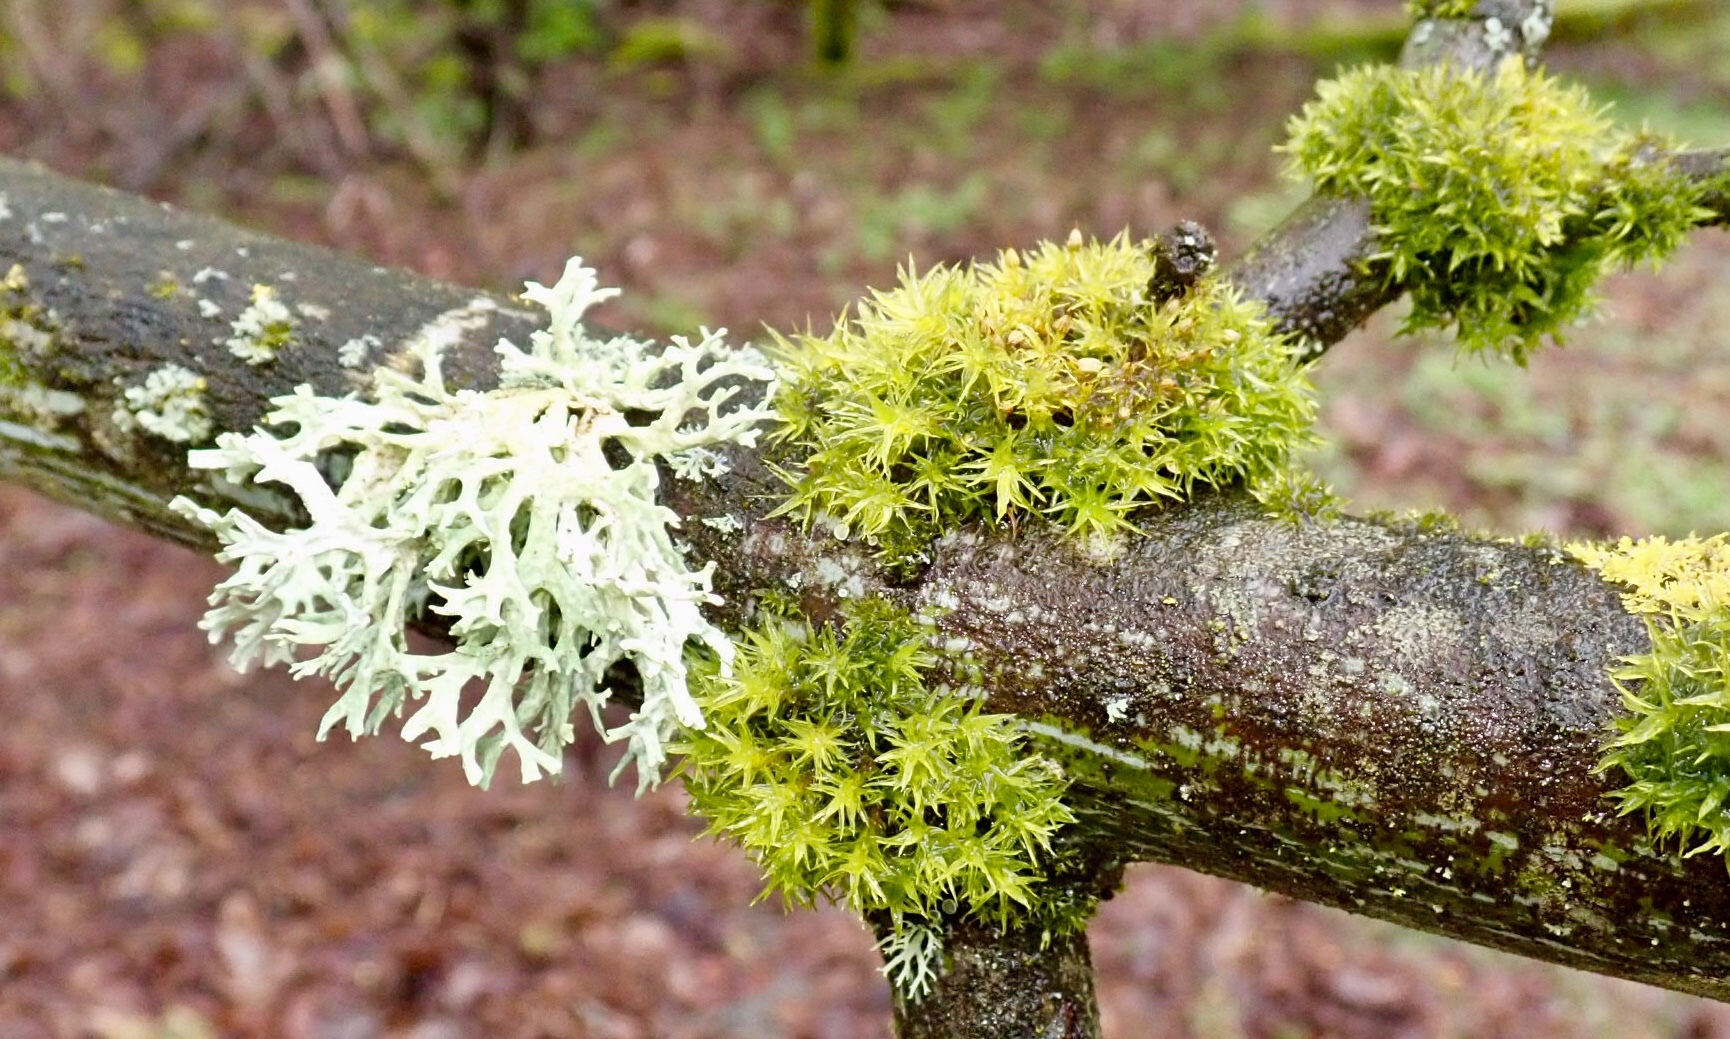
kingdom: Fungi
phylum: Ascomycota
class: Lecanoromycetes
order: Lecanorales
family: Parmeliaceae
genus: Evernia
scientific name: Evernia prunastri
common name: Oak moss
